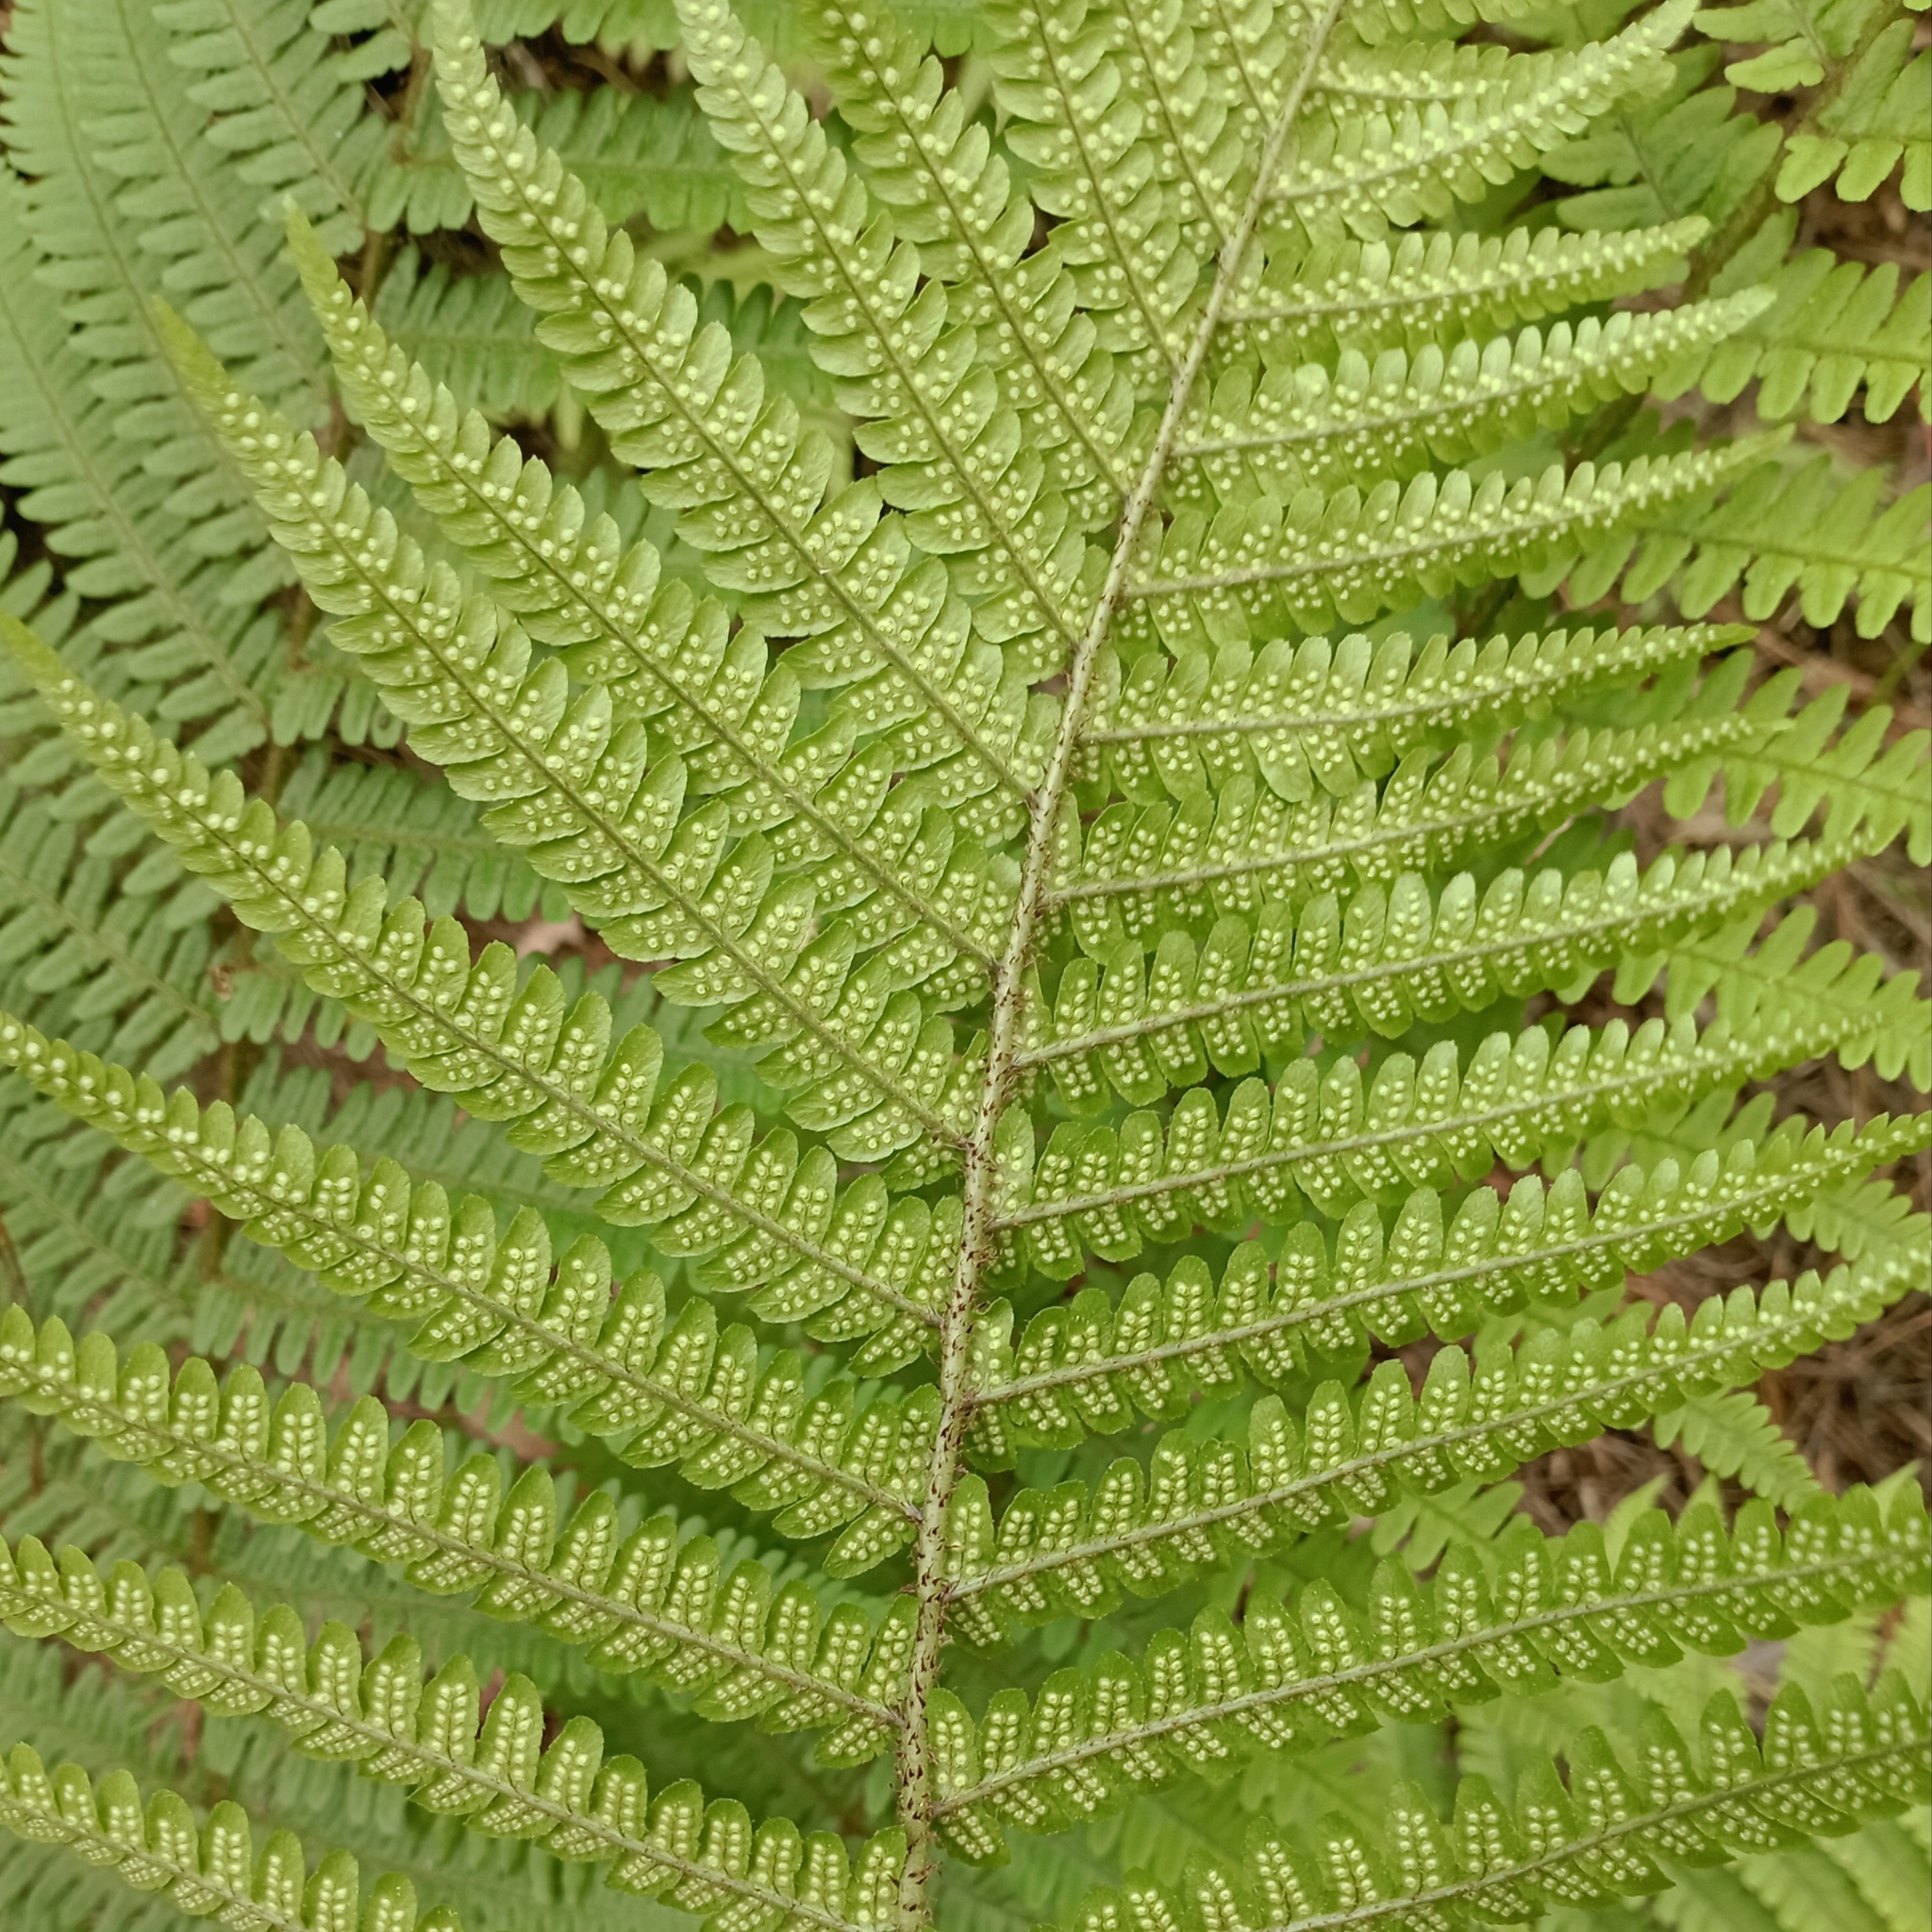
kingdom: Plantae
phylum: Tracheophyta
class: Polypodiopsida
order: Polypodiales
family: Dryopteridaceae
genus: Dryopteris
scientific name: Dryopteris wallichiana
